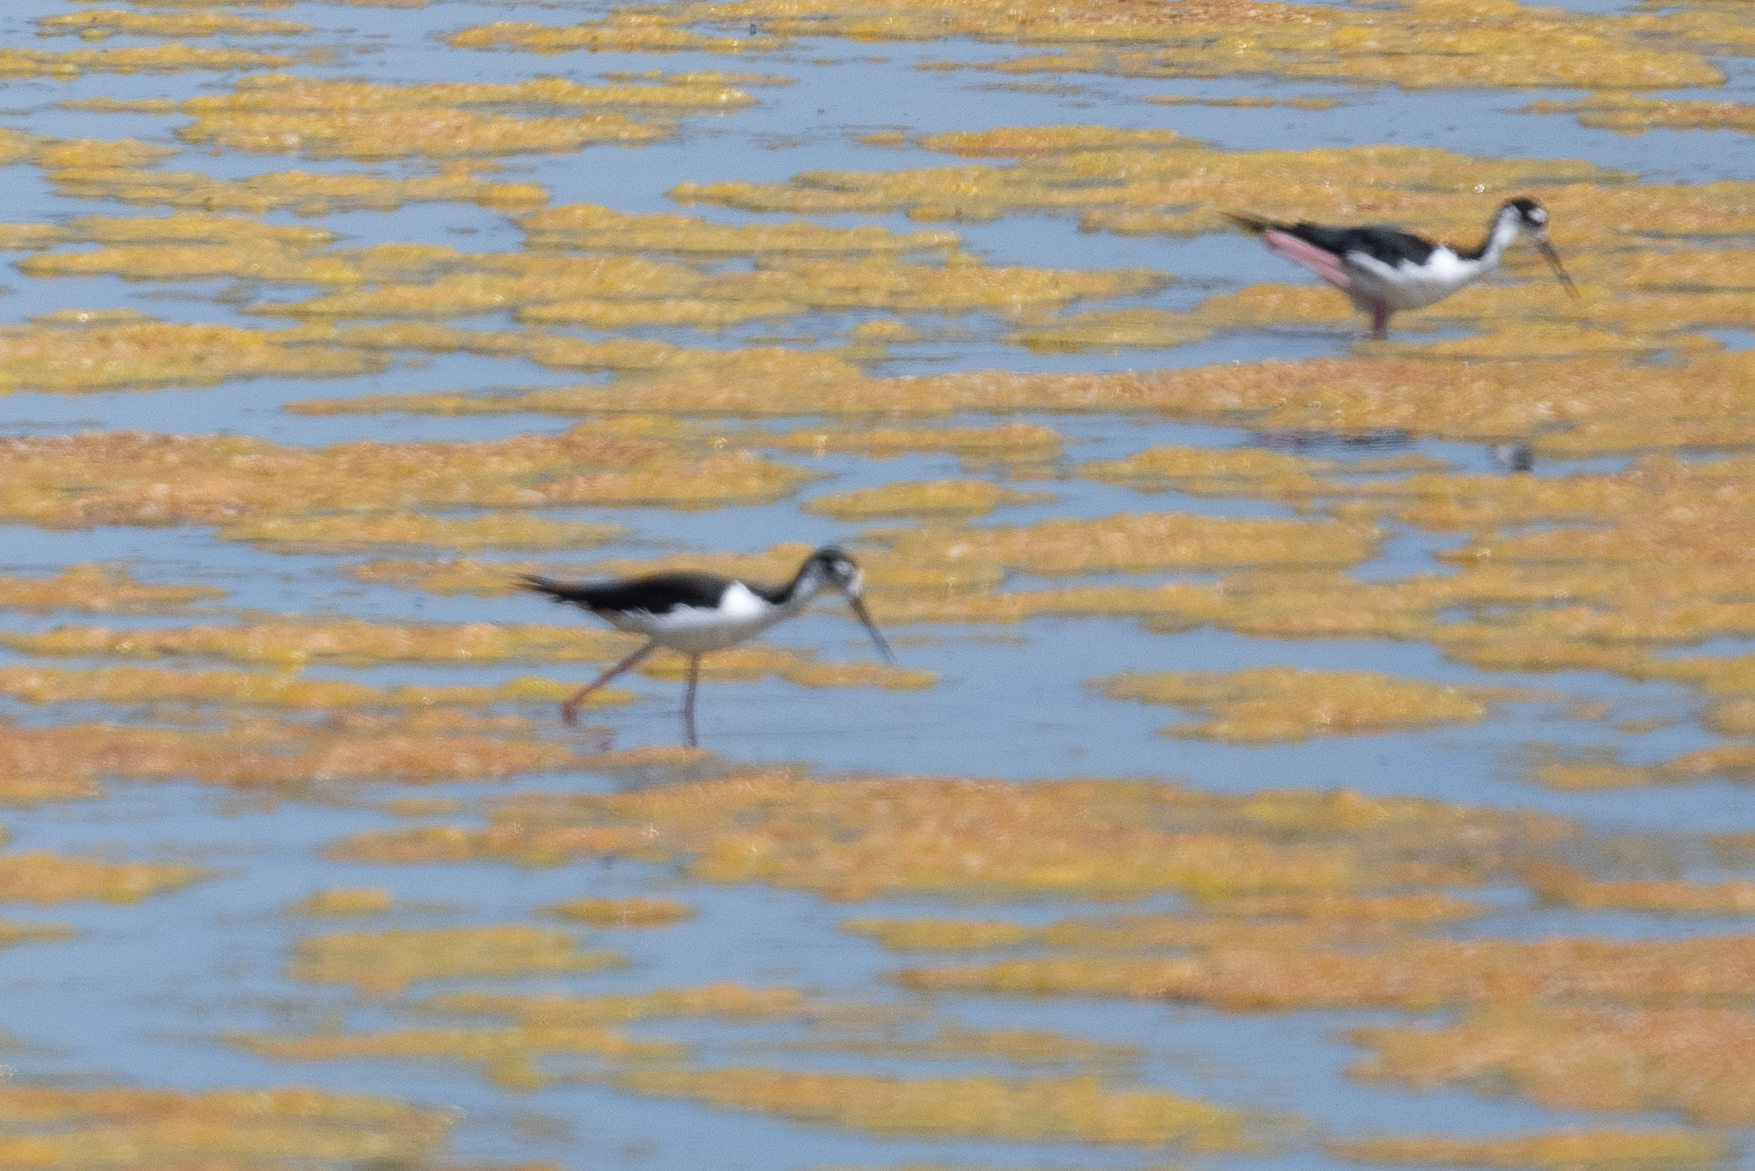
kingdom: Animalia
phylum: Chordata
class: Aves
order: Charadriiformes
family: Recurvirostridae
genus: Himantopus
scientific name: Himantopus mexicanus
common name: Black-necked stilt
